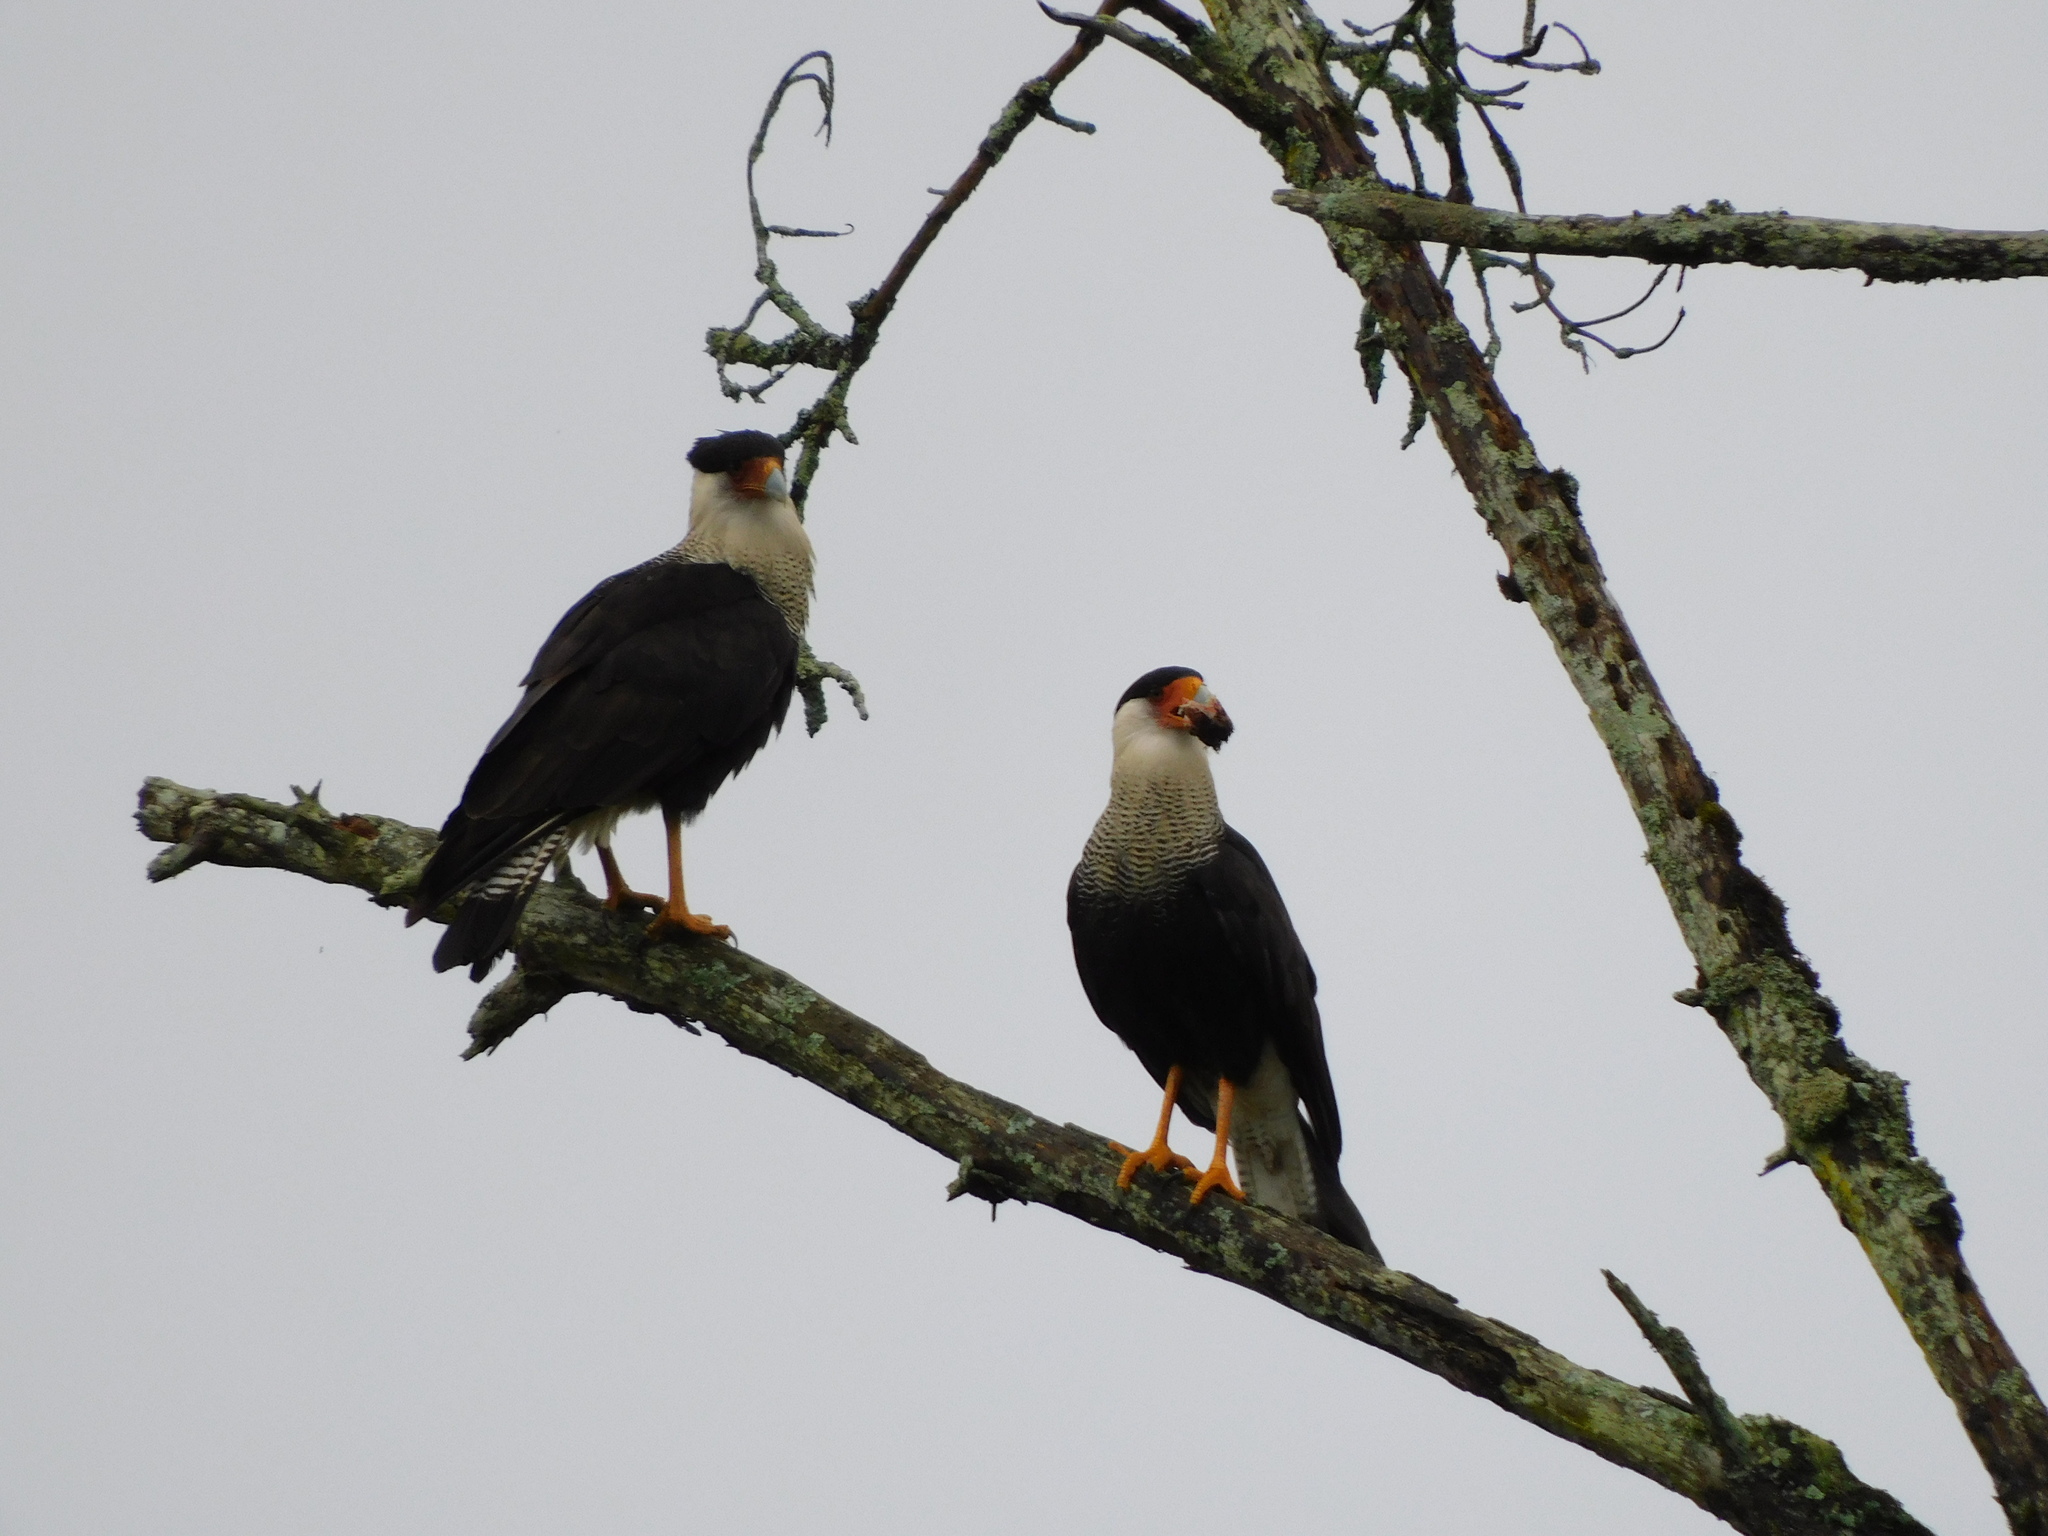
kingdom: Animalia
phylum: Chordata
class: Aves
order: Falconiformes
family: Falconidae
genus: Caracara
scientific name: Caracara plancus
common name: Southern caracara
